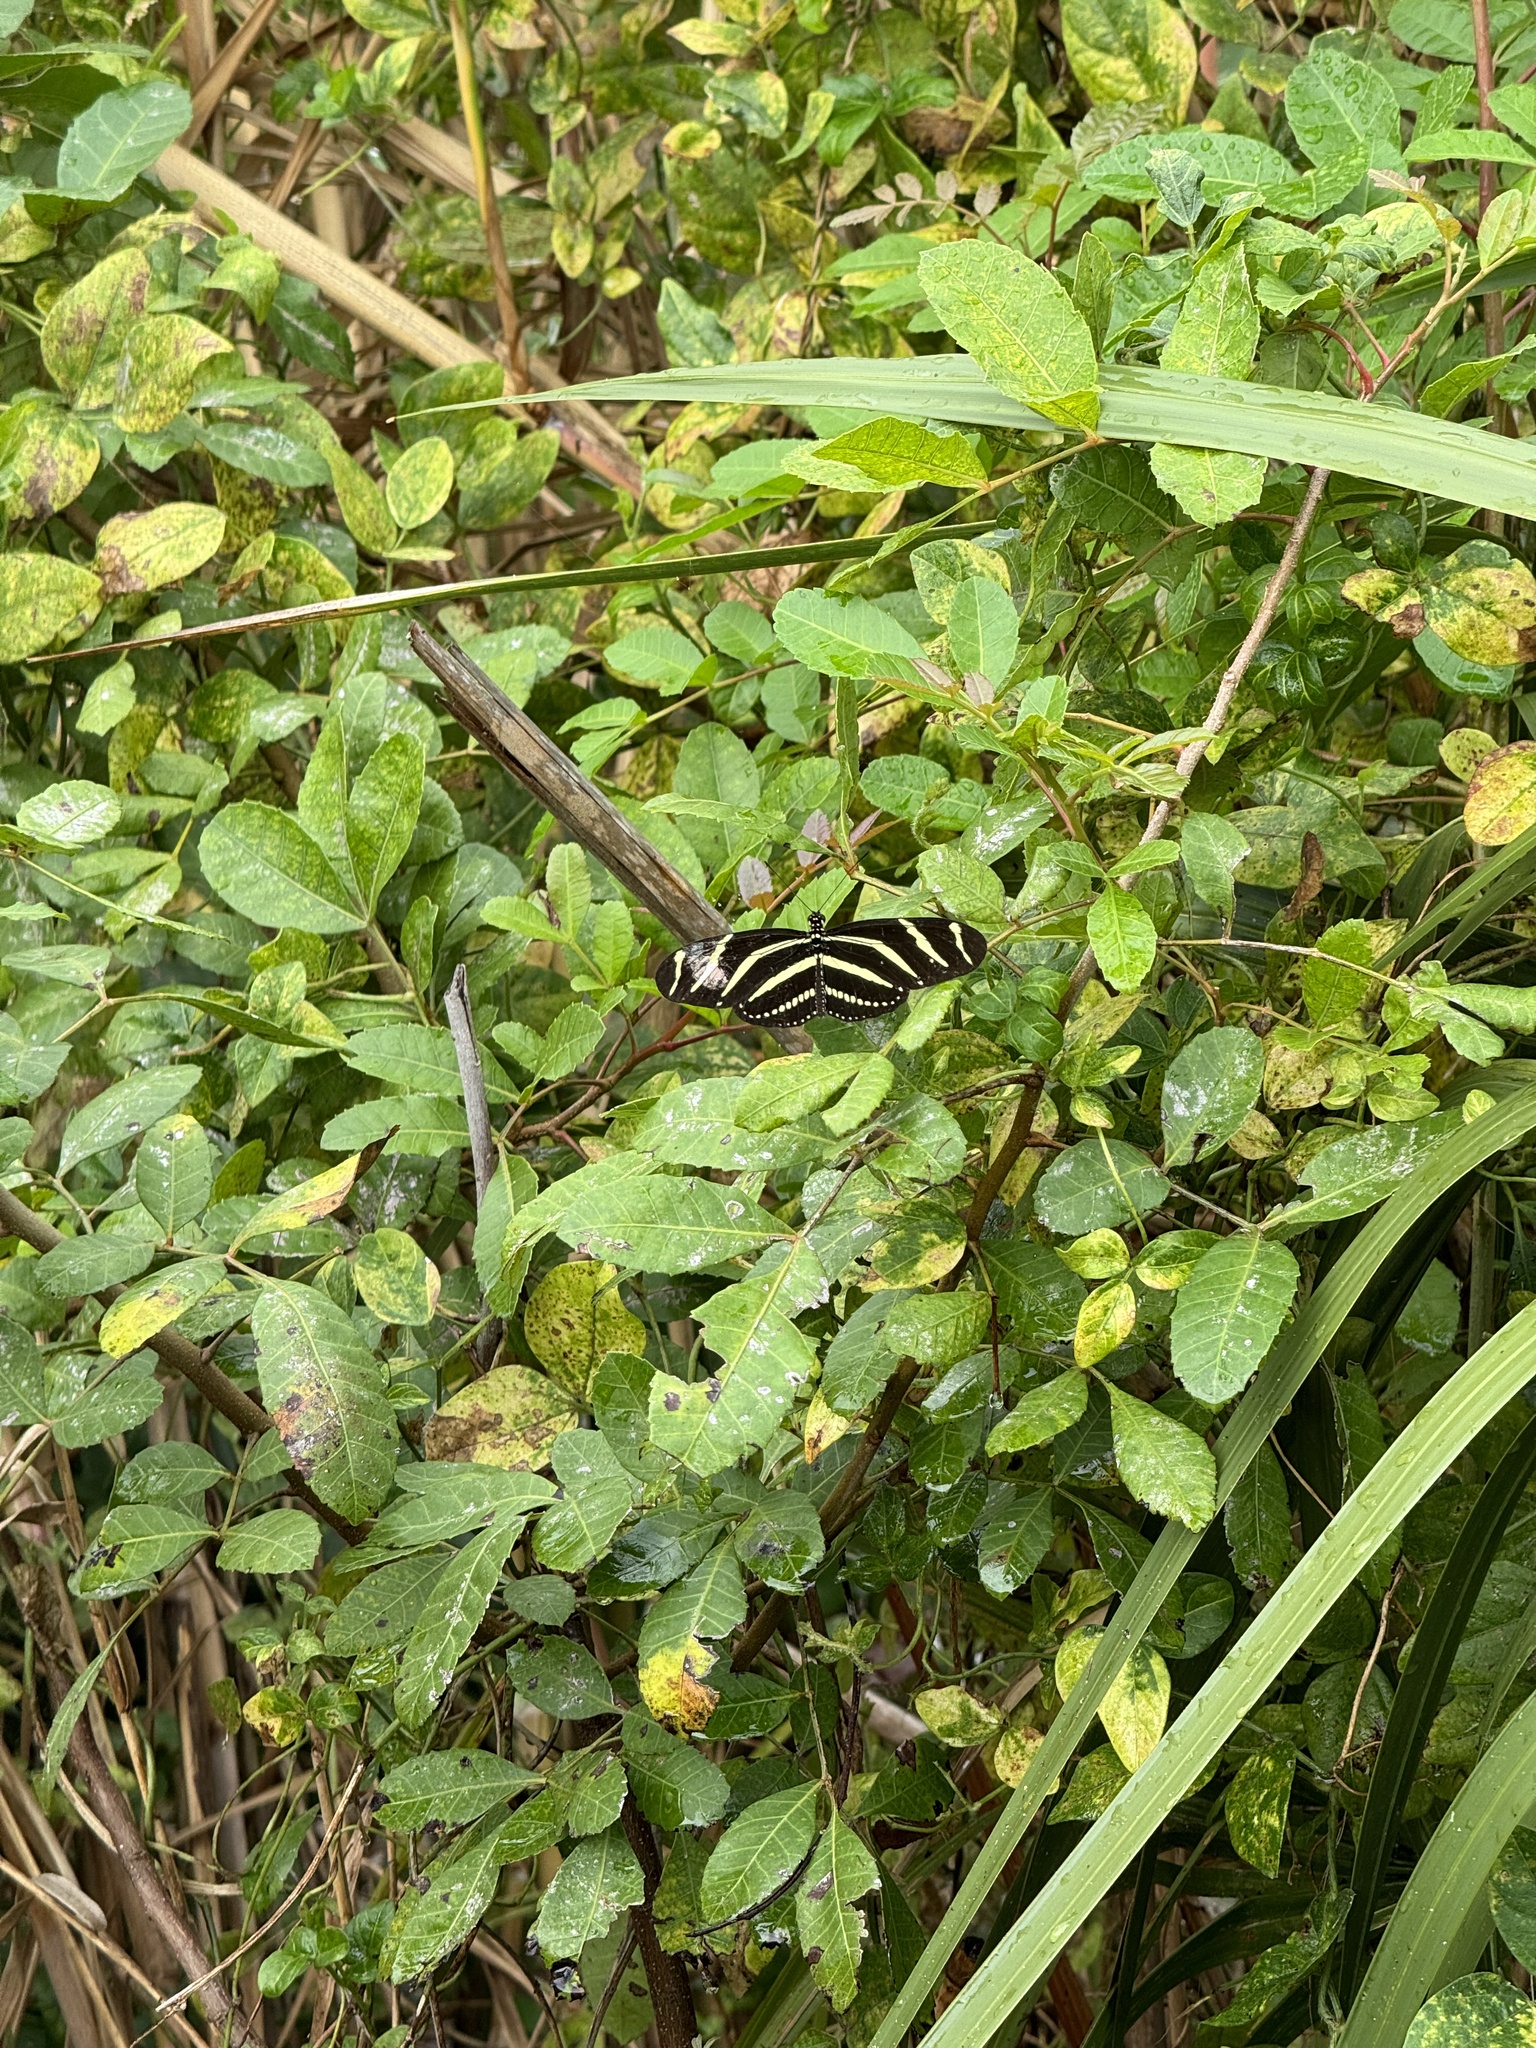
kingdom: Animalia
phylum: Arthropoda
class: Insecta
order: Lepidoptera
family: Nymphalidae
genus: Heliconius
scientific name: Heliconius charithonia
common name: Zebra long wing
